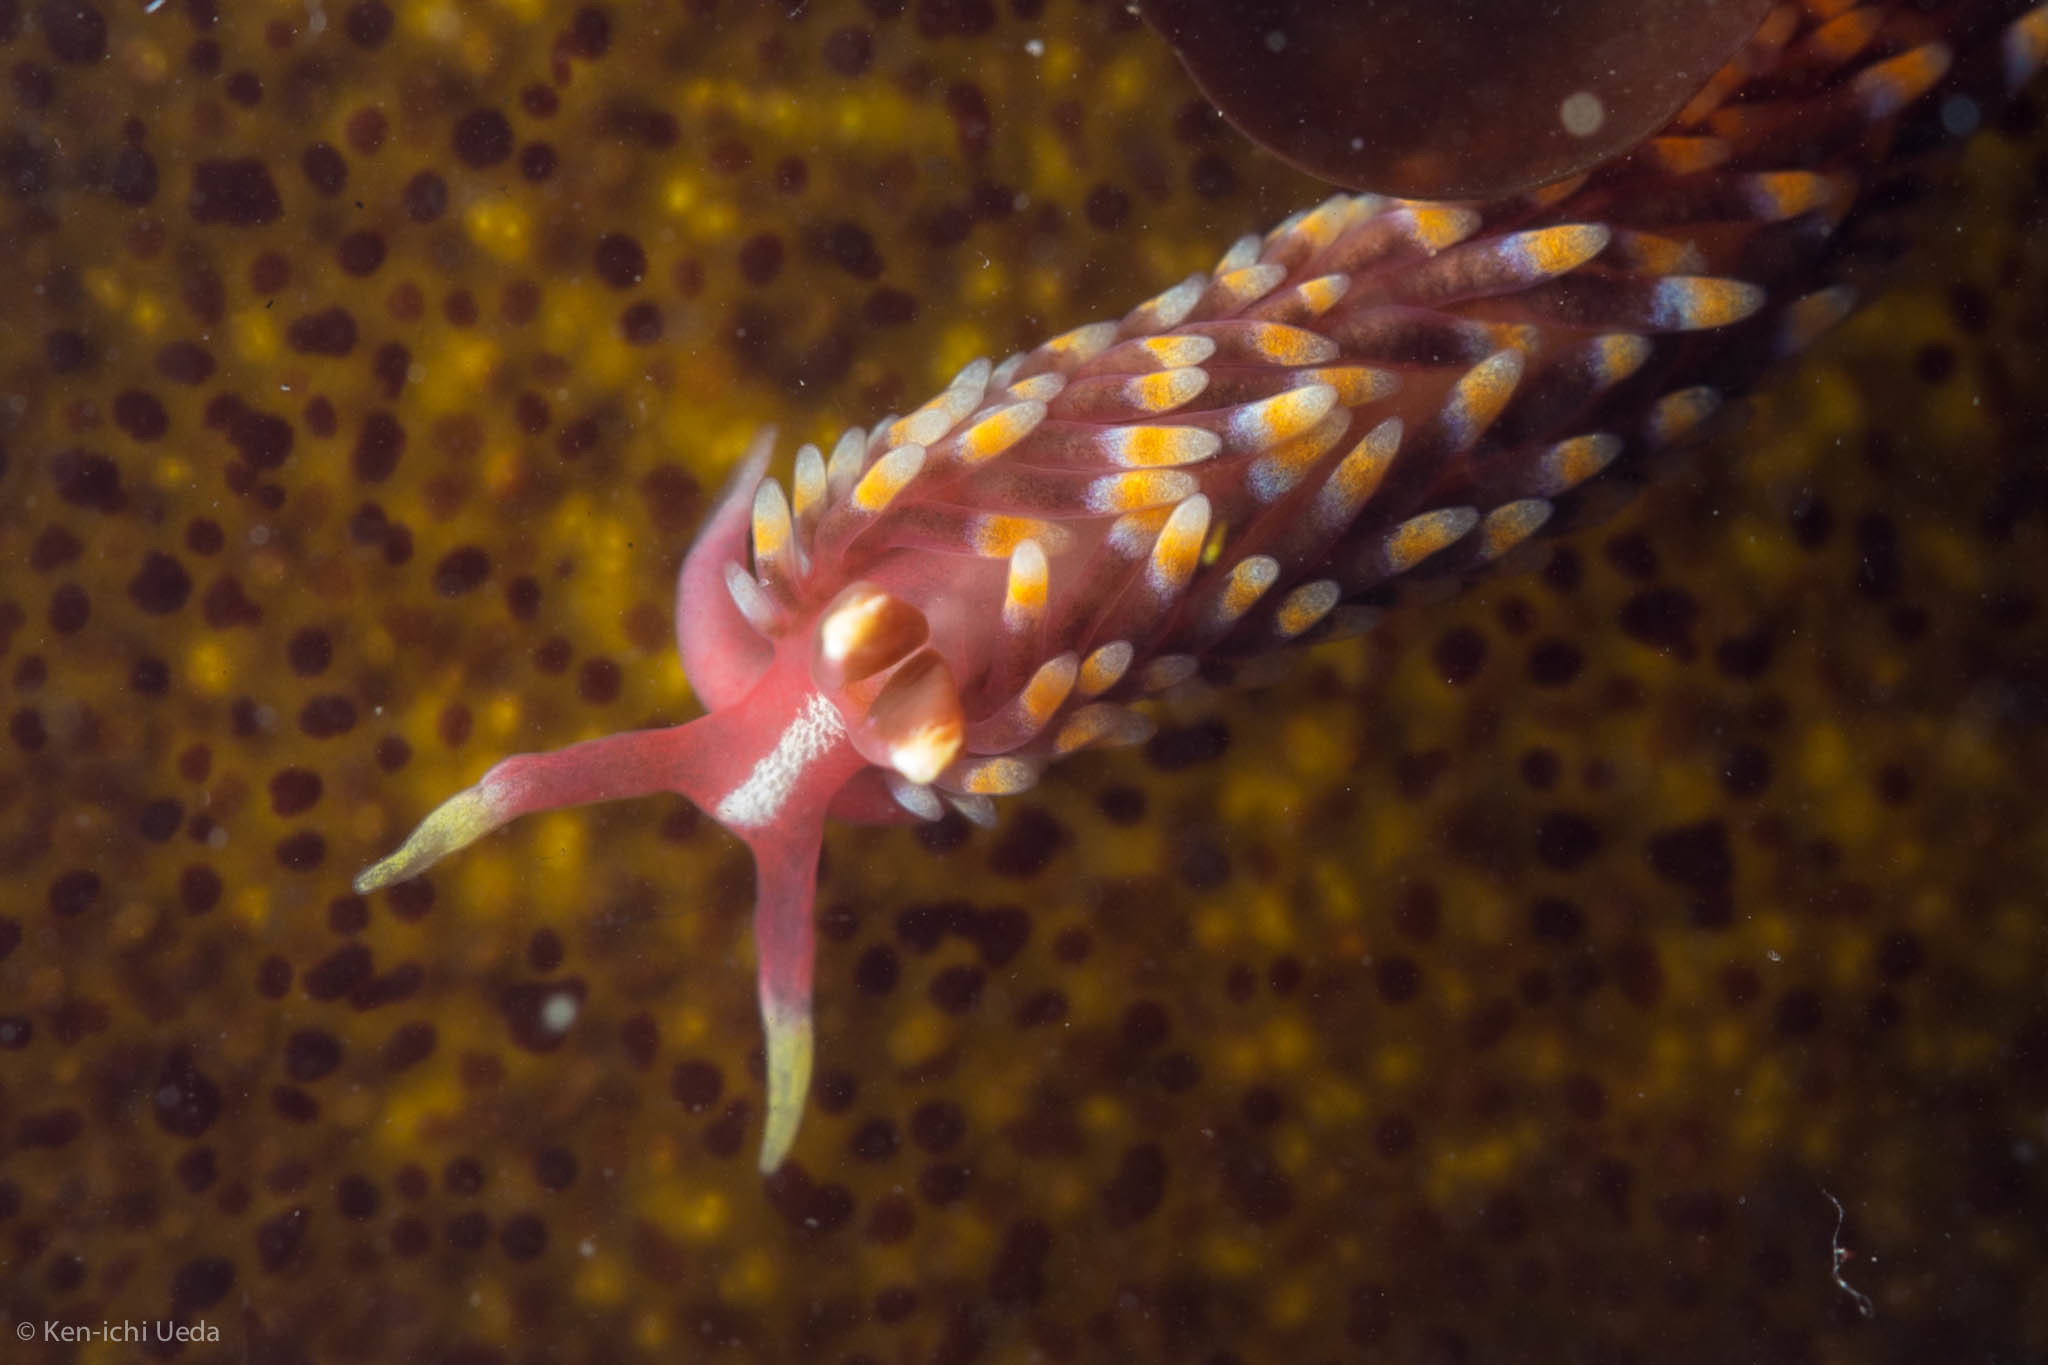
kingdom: Animalia
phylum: Mollusca
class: Gastropoda
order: Nudibranchia
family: Babakinidae
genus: Babakina
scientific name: Babakina festiva
